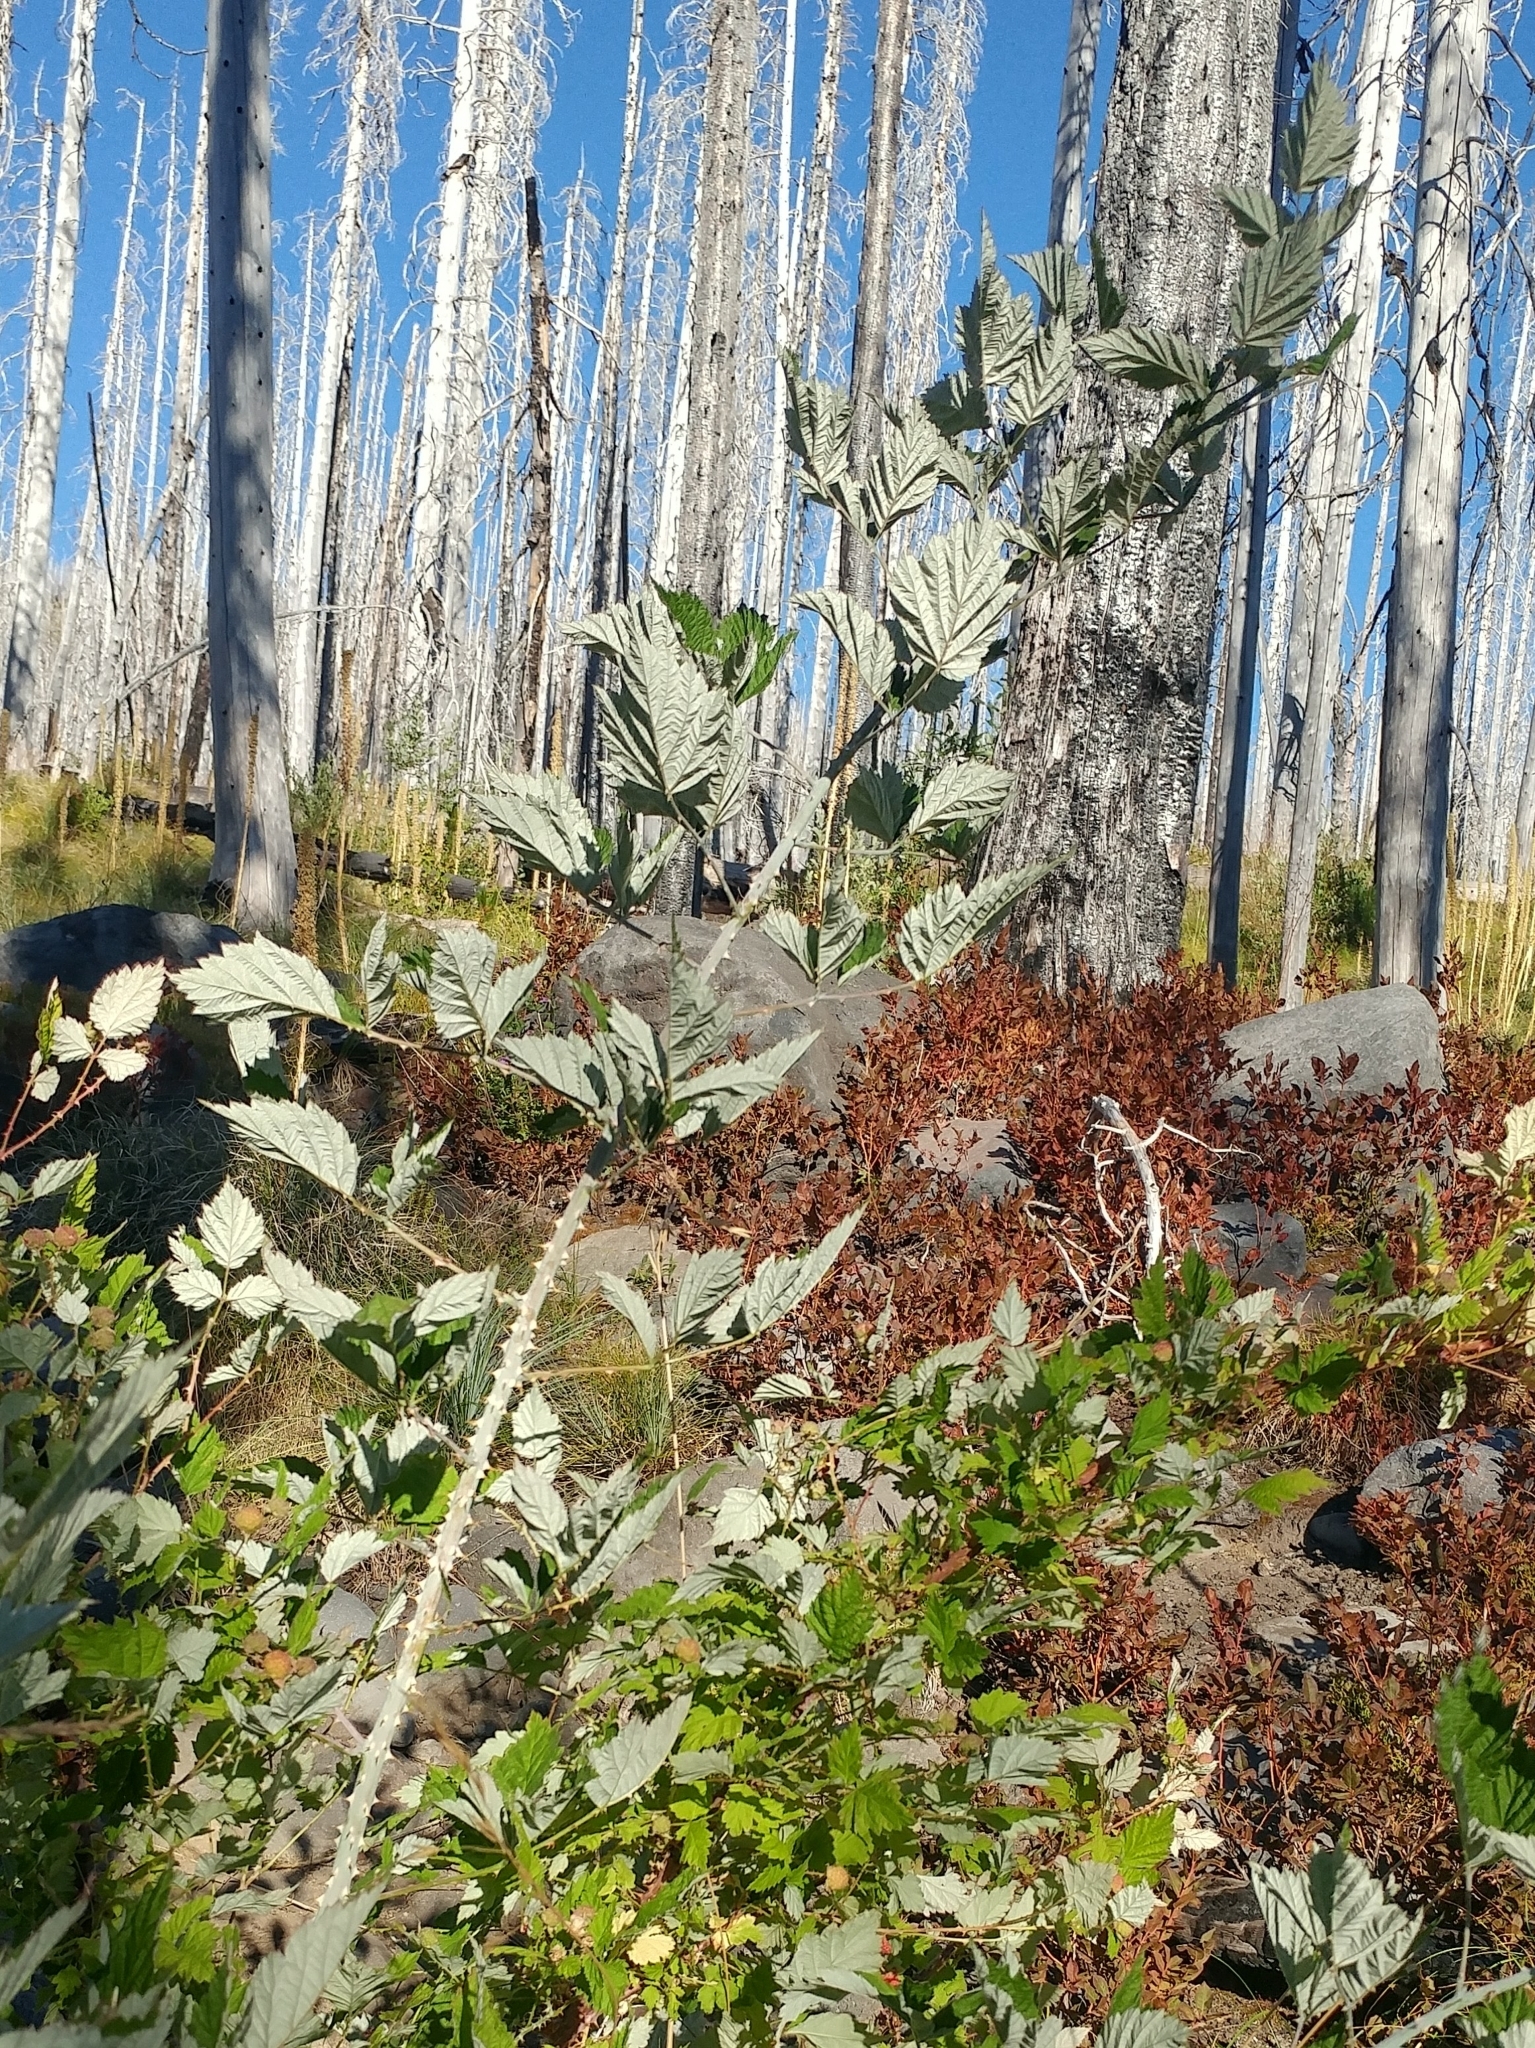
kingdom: Plantae
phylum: Tracheophyta
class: Magnoliopsida
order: Rosales
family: Rosaceae
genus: Rubus
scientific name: Rubus leucodermis
